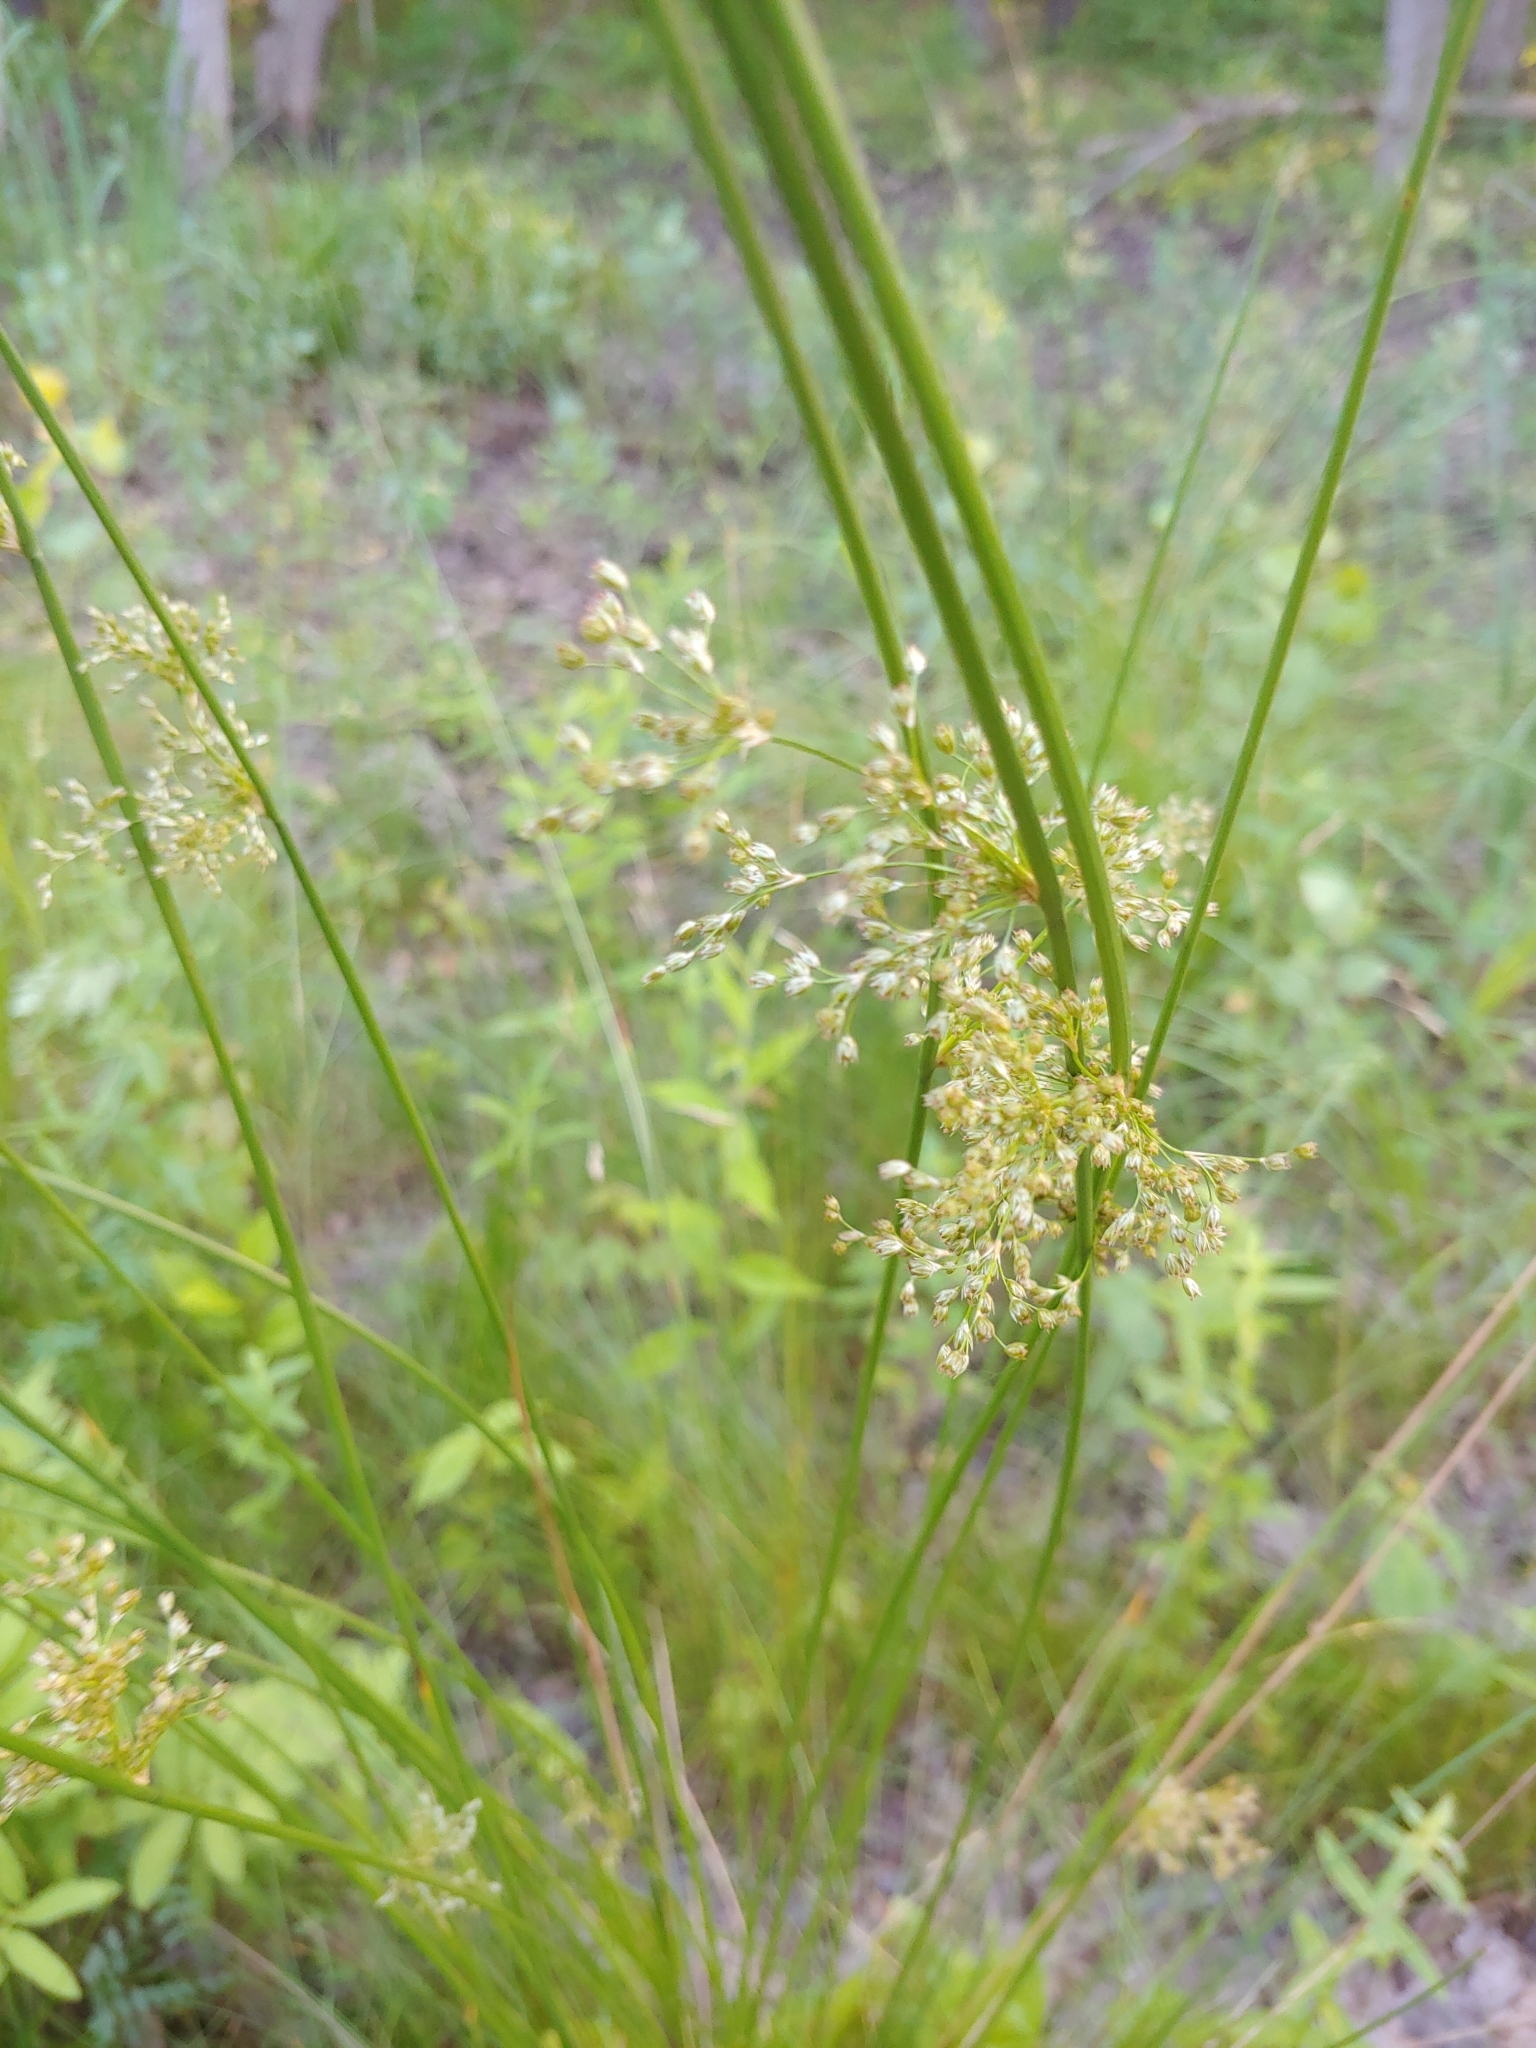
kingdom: Plantae
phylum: Tracheophyta
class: Liliopsida
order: Poales
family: Juncaceae
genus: Juncus
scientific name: Juncus effusus
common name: Soft rush
